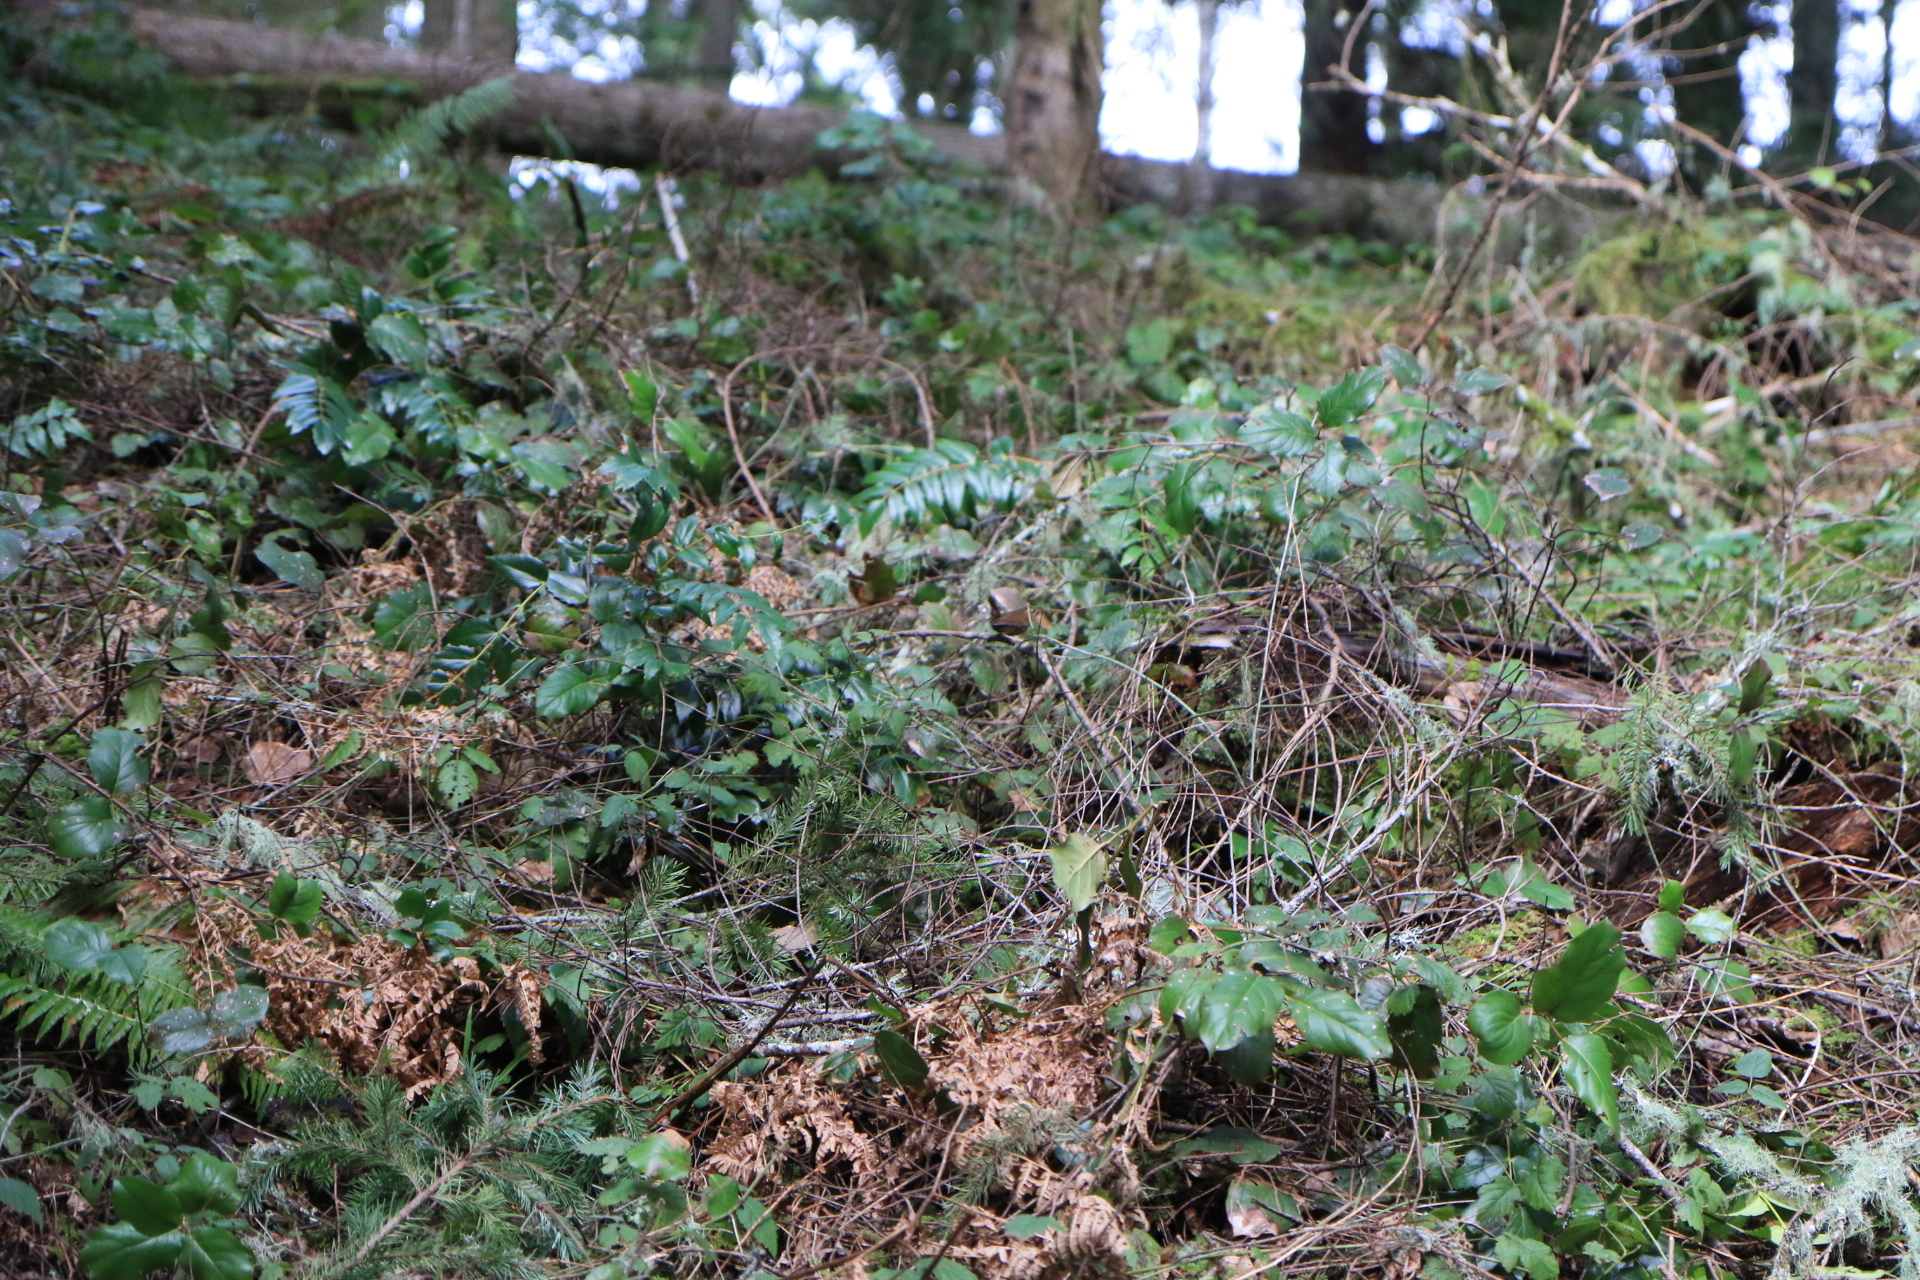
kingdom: Animalia
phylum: Chordata
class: Aves
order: Passeriformes
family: Troglodytidae
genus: Troglodytes
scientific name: Troglodytes pacificus
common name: Pacific wren
